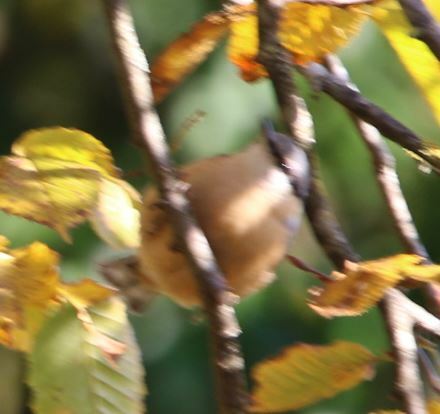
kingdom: Animalia
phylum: Chordata
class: Aves
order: Passeriformes
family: Sittidae
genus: Sitta
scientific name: Sitta europaea
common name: Eurasian nuthatch
